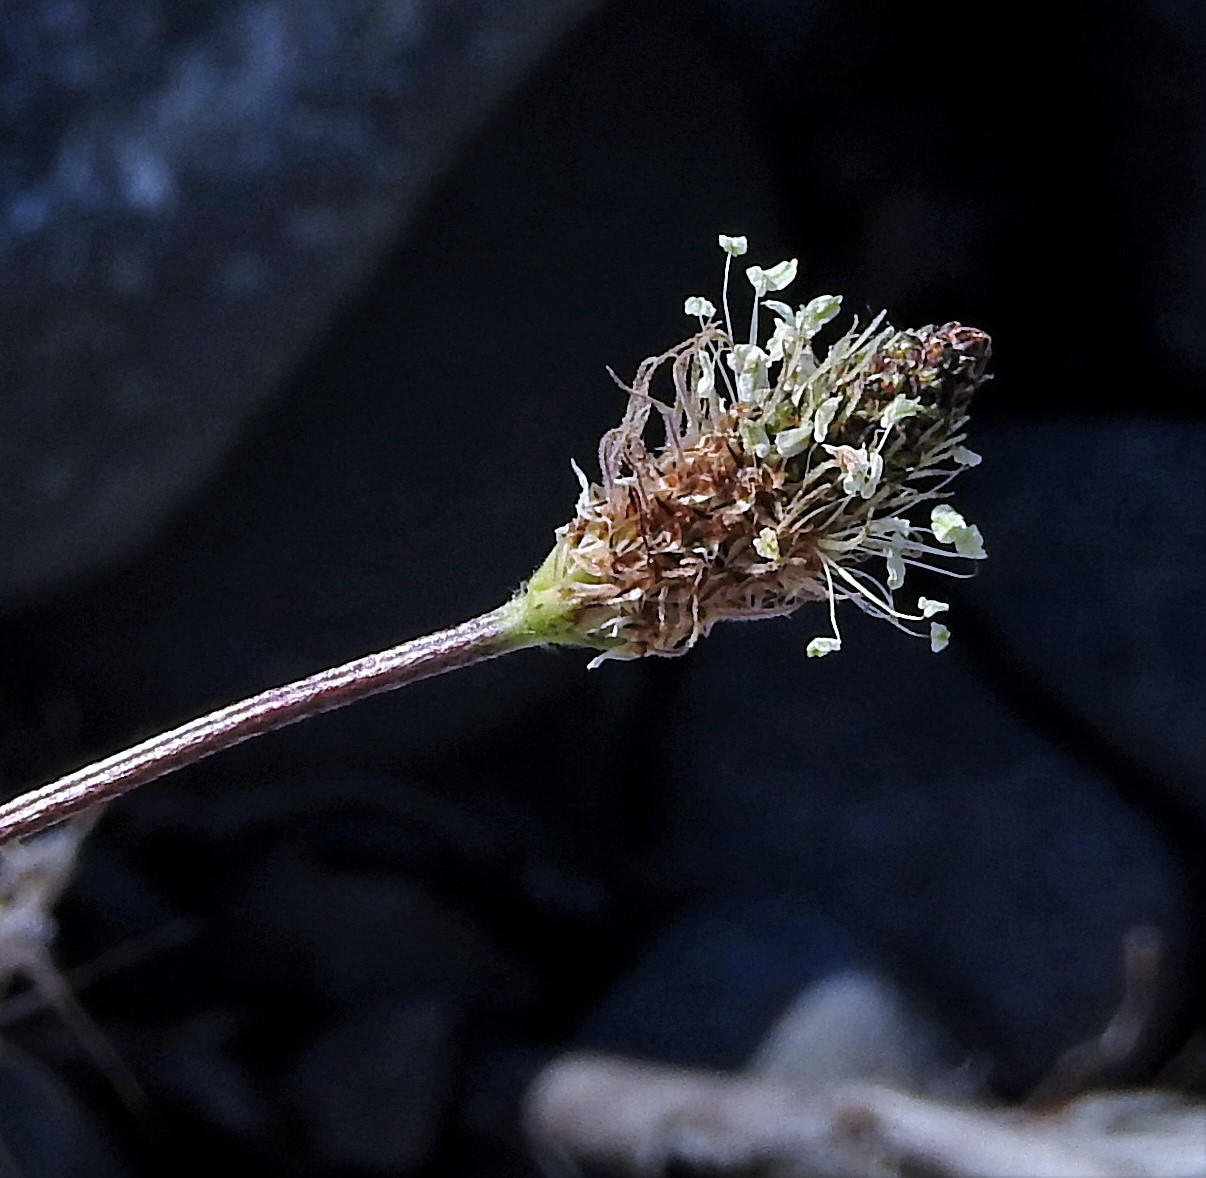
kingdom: Plantae
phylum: Tracheophyta
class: Magnoliopsida
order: Lamiales
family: Plantaginaceae
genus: Plantago
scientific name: Plantago lanceolata
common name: Ribwort plantain
